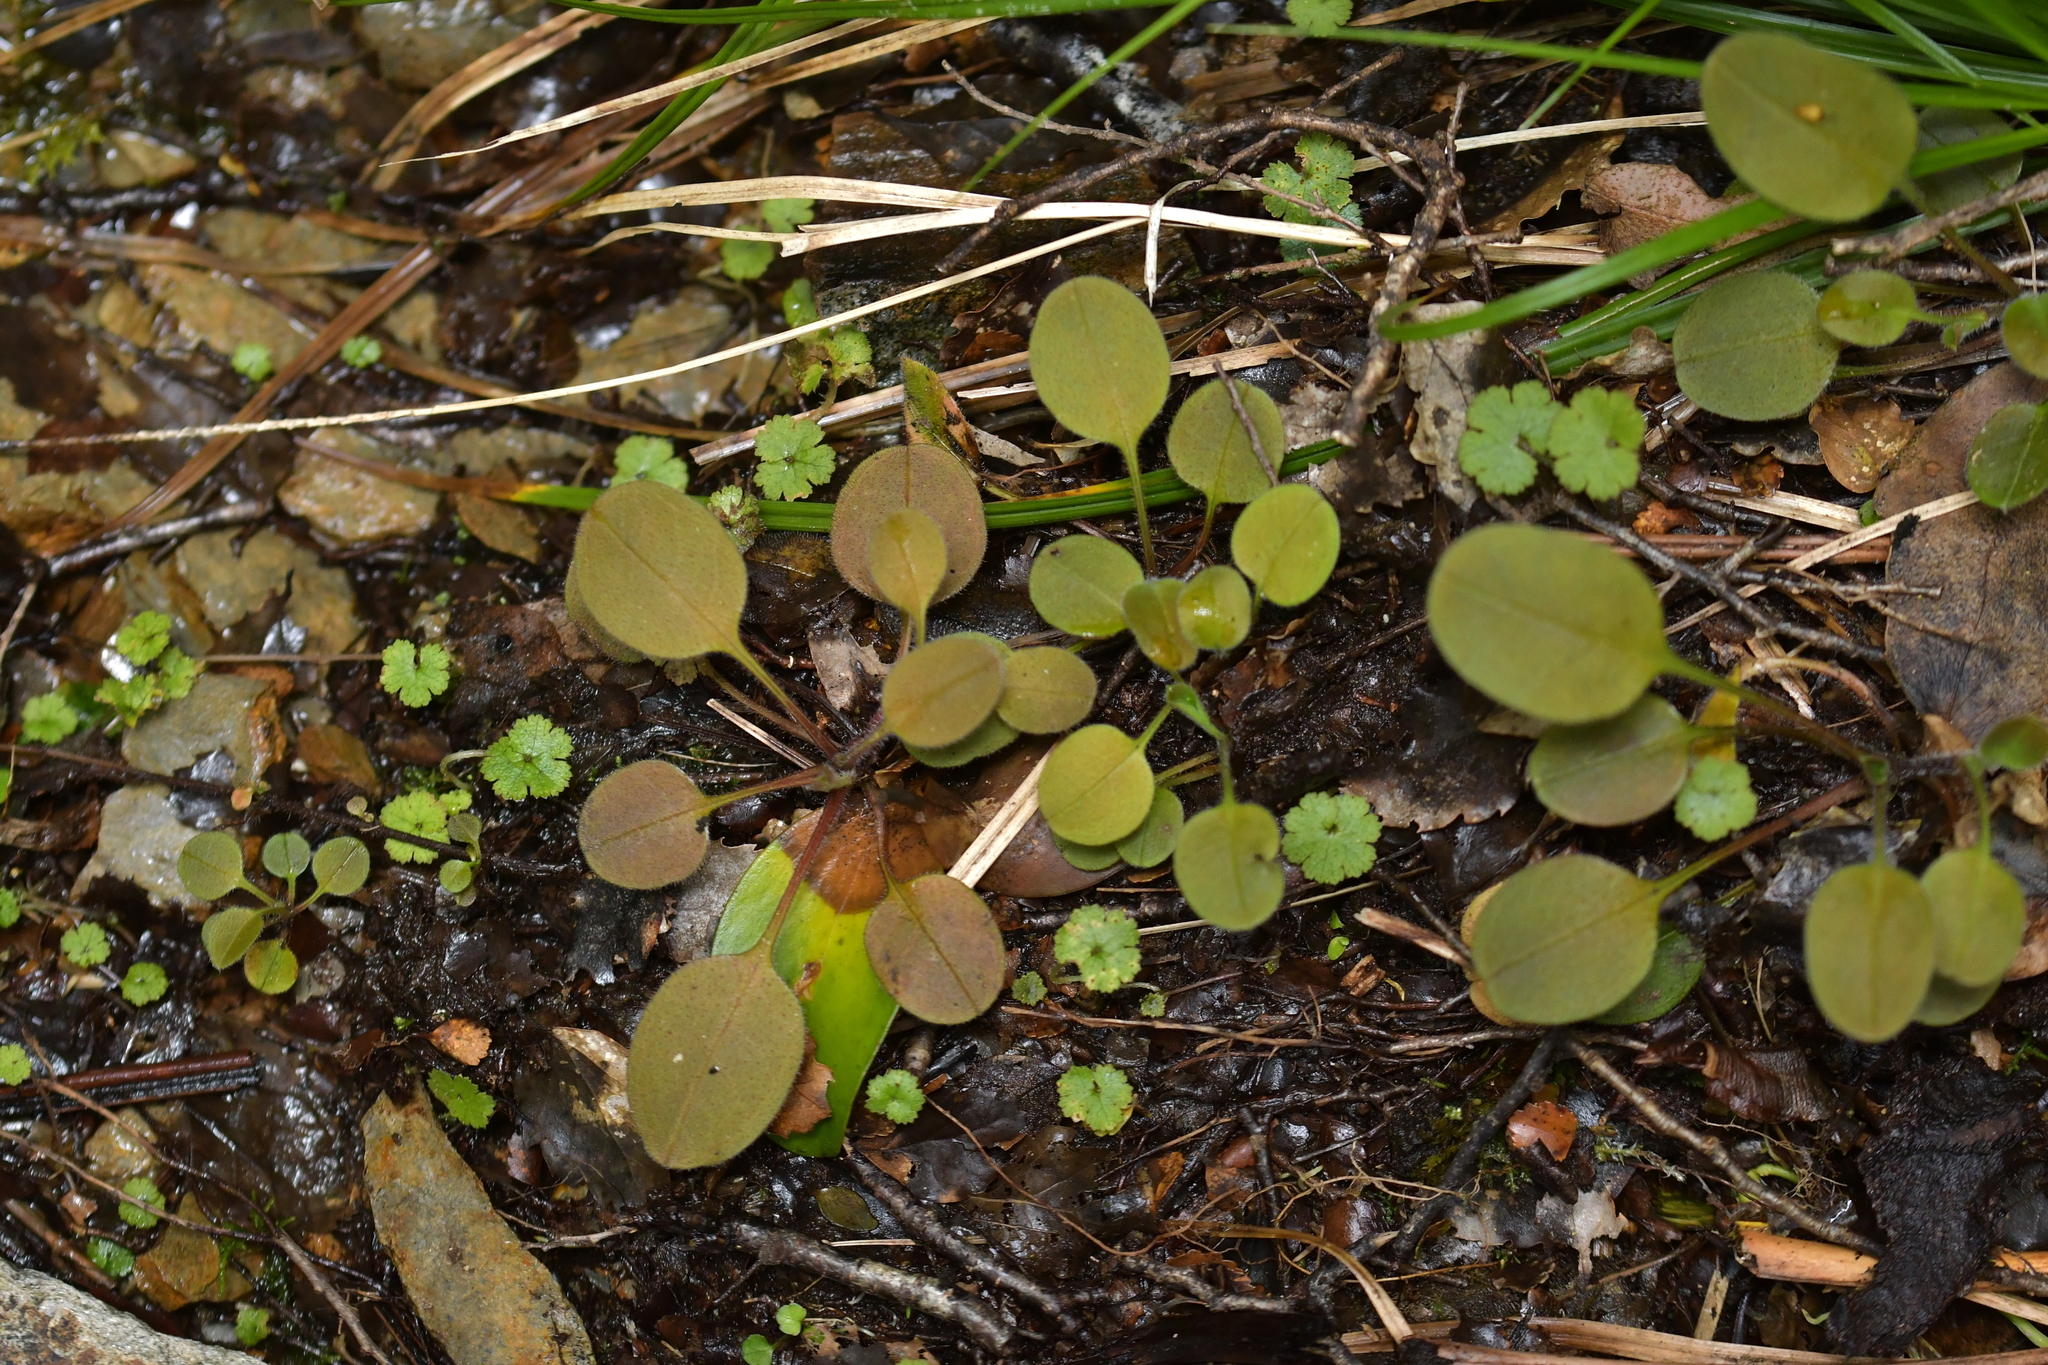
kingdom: Plantae
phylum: Tracheophyta
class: Magnoliopsida
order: Boraginales
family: Boraginaceae
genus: Myosotis
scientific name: Myosotis forsteri
